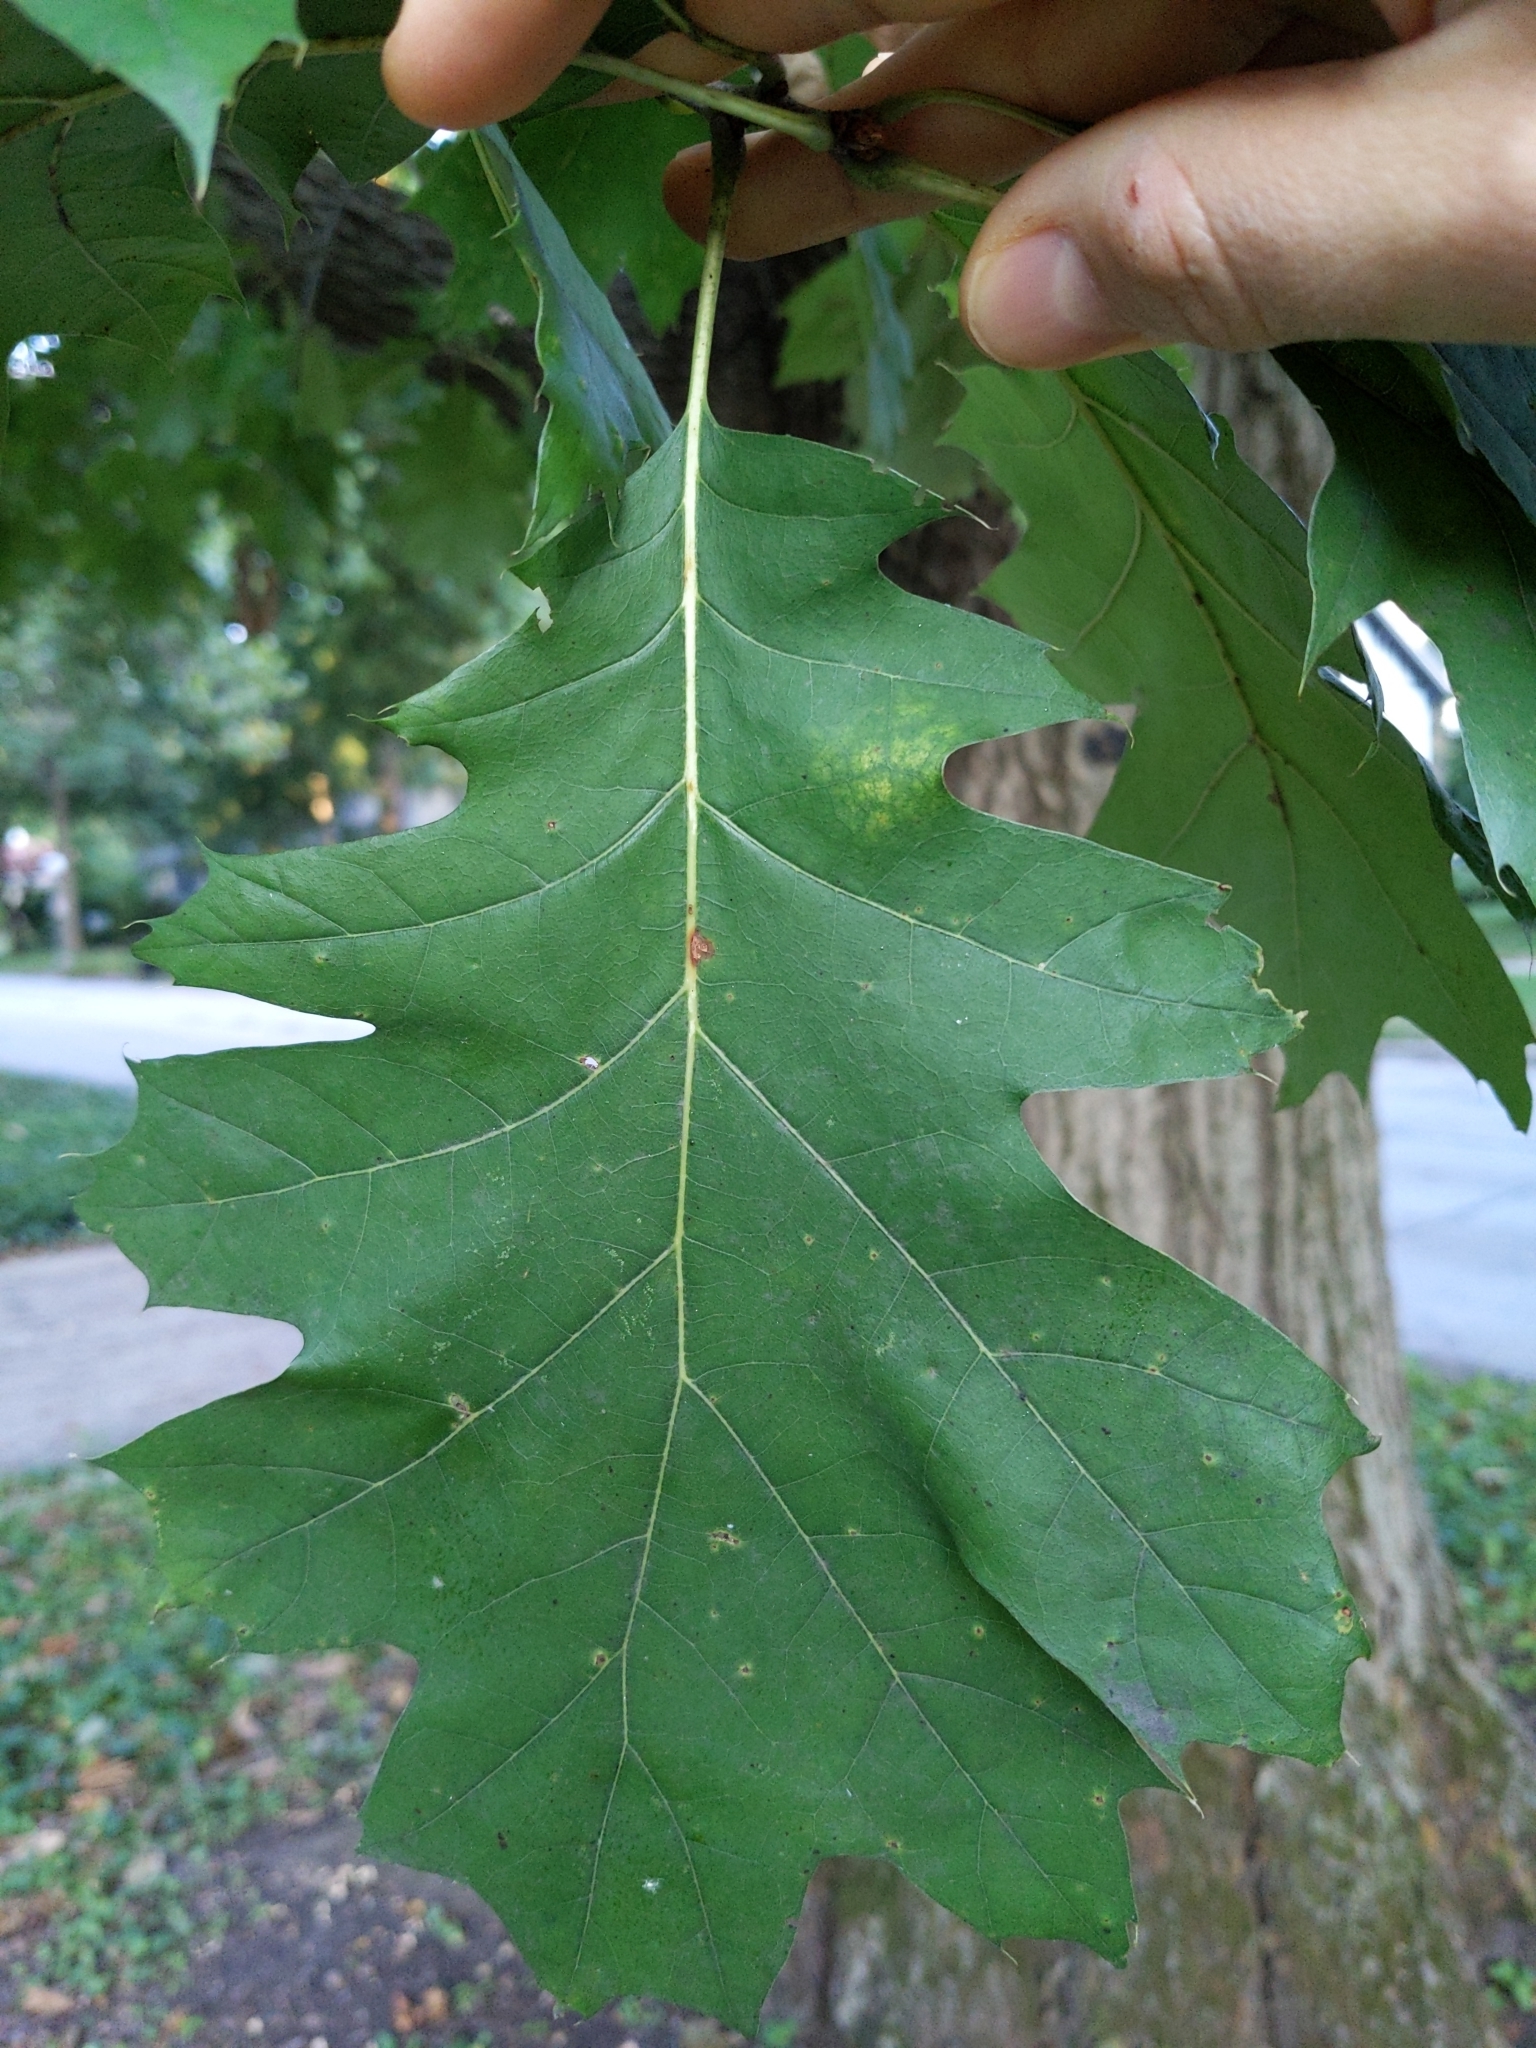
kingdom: Plantae
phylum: Tracheophyta
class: Magnoliopsida
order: Fagales
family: Fagaceae
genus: Quercus
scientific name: Quercus rubra
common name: Red oak
